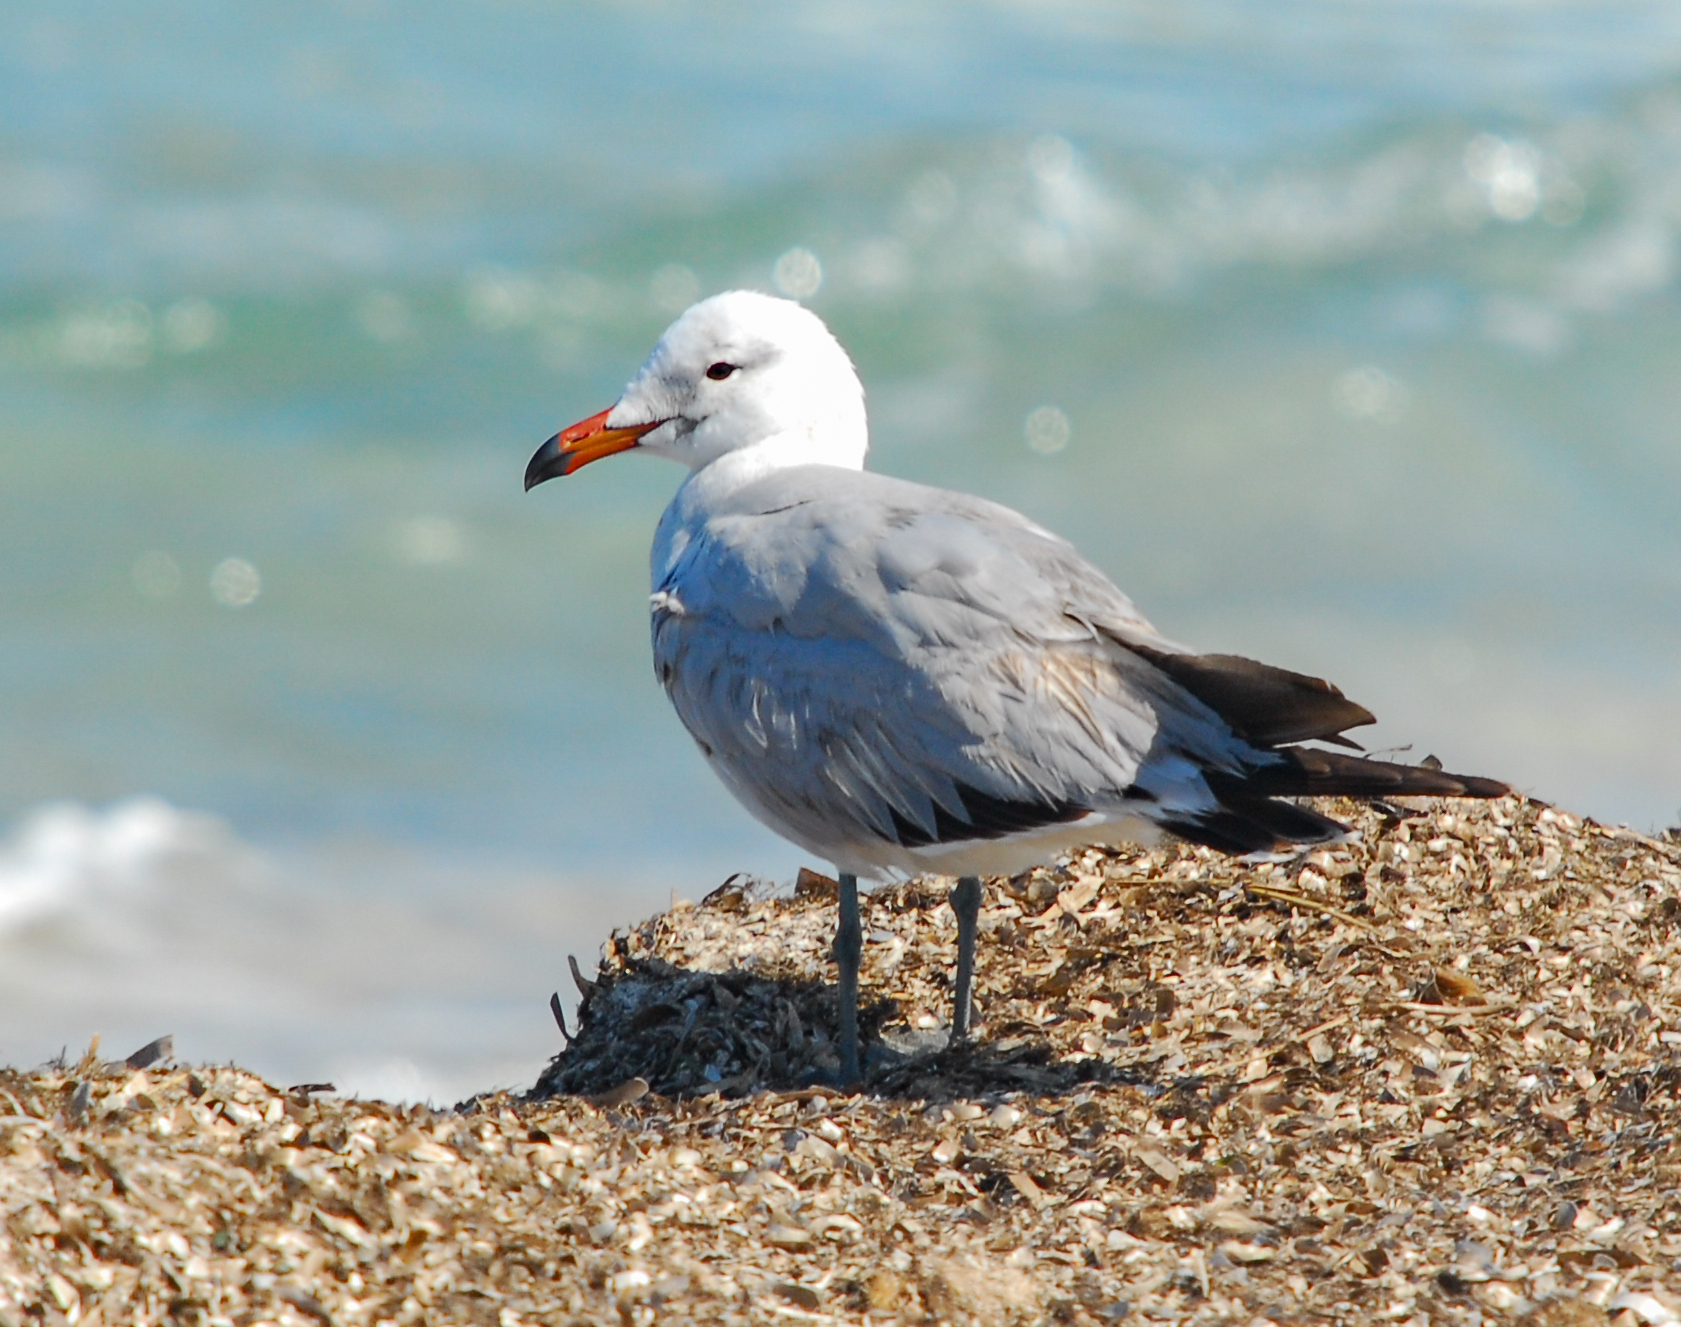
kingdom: Animalia
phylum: Chordata
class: Aves
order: Charadriiformes
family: Laridae
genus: Ichthyaetus
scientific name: Ichthyaetus audouinii
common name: Audouin's gull
